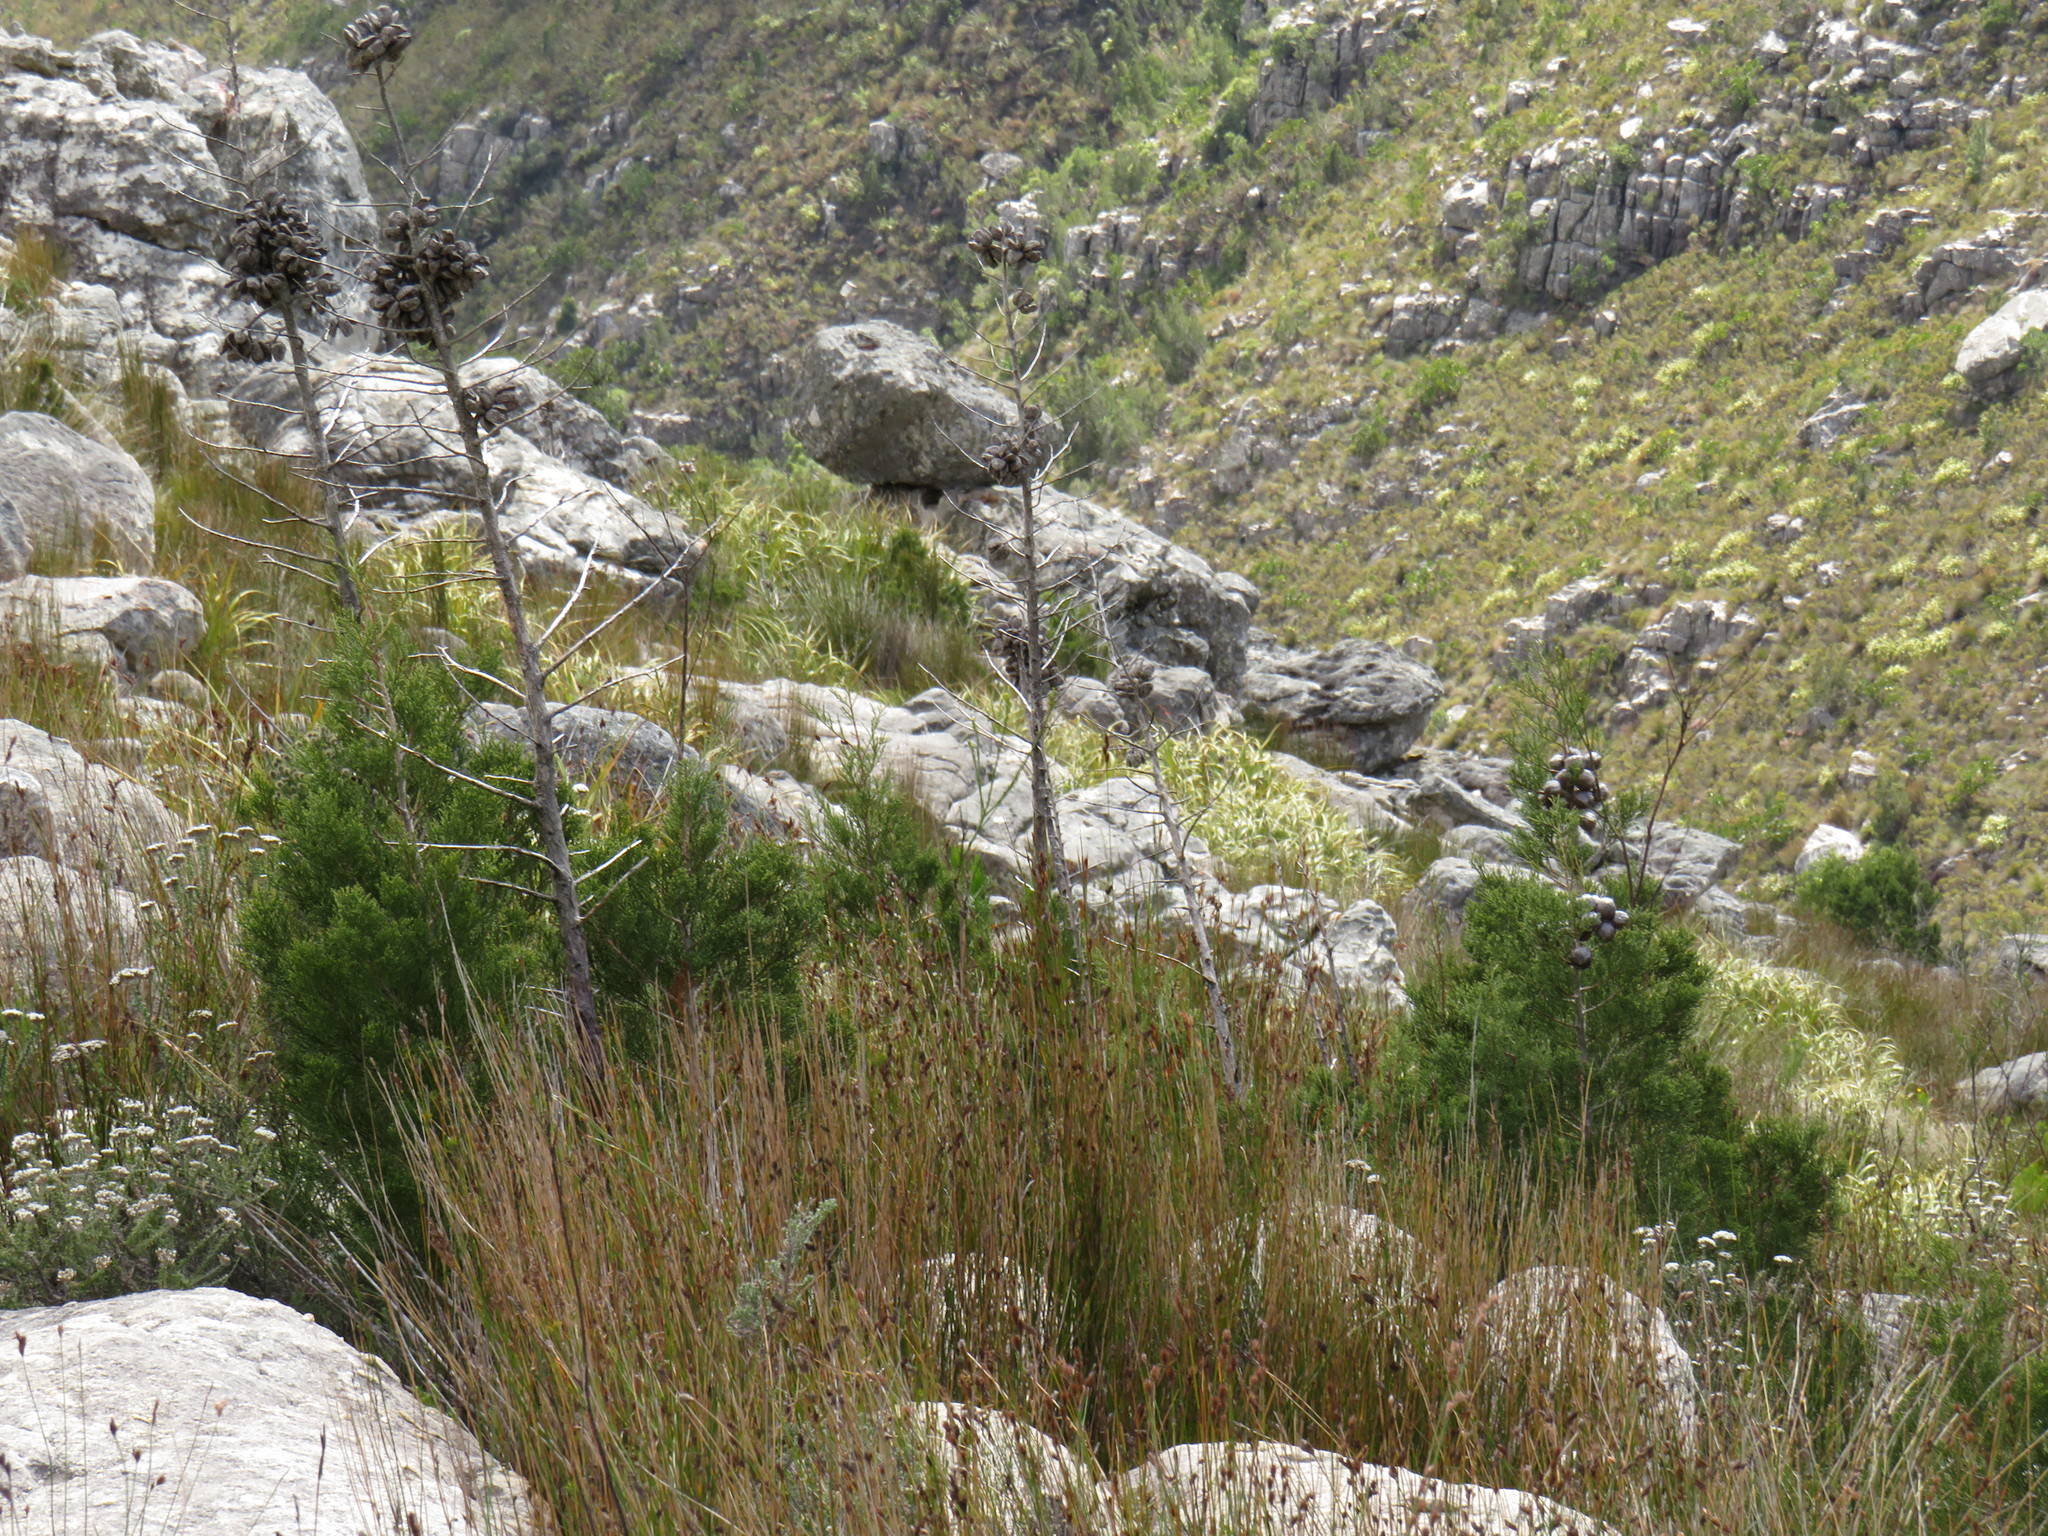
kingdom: Plantae
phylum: Tracheophyta
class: Pinopsida
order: Pinales
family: Cupressaceae
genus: Widdringtonia
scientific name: Widdringtonia nodiflora
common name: Cape cypress
